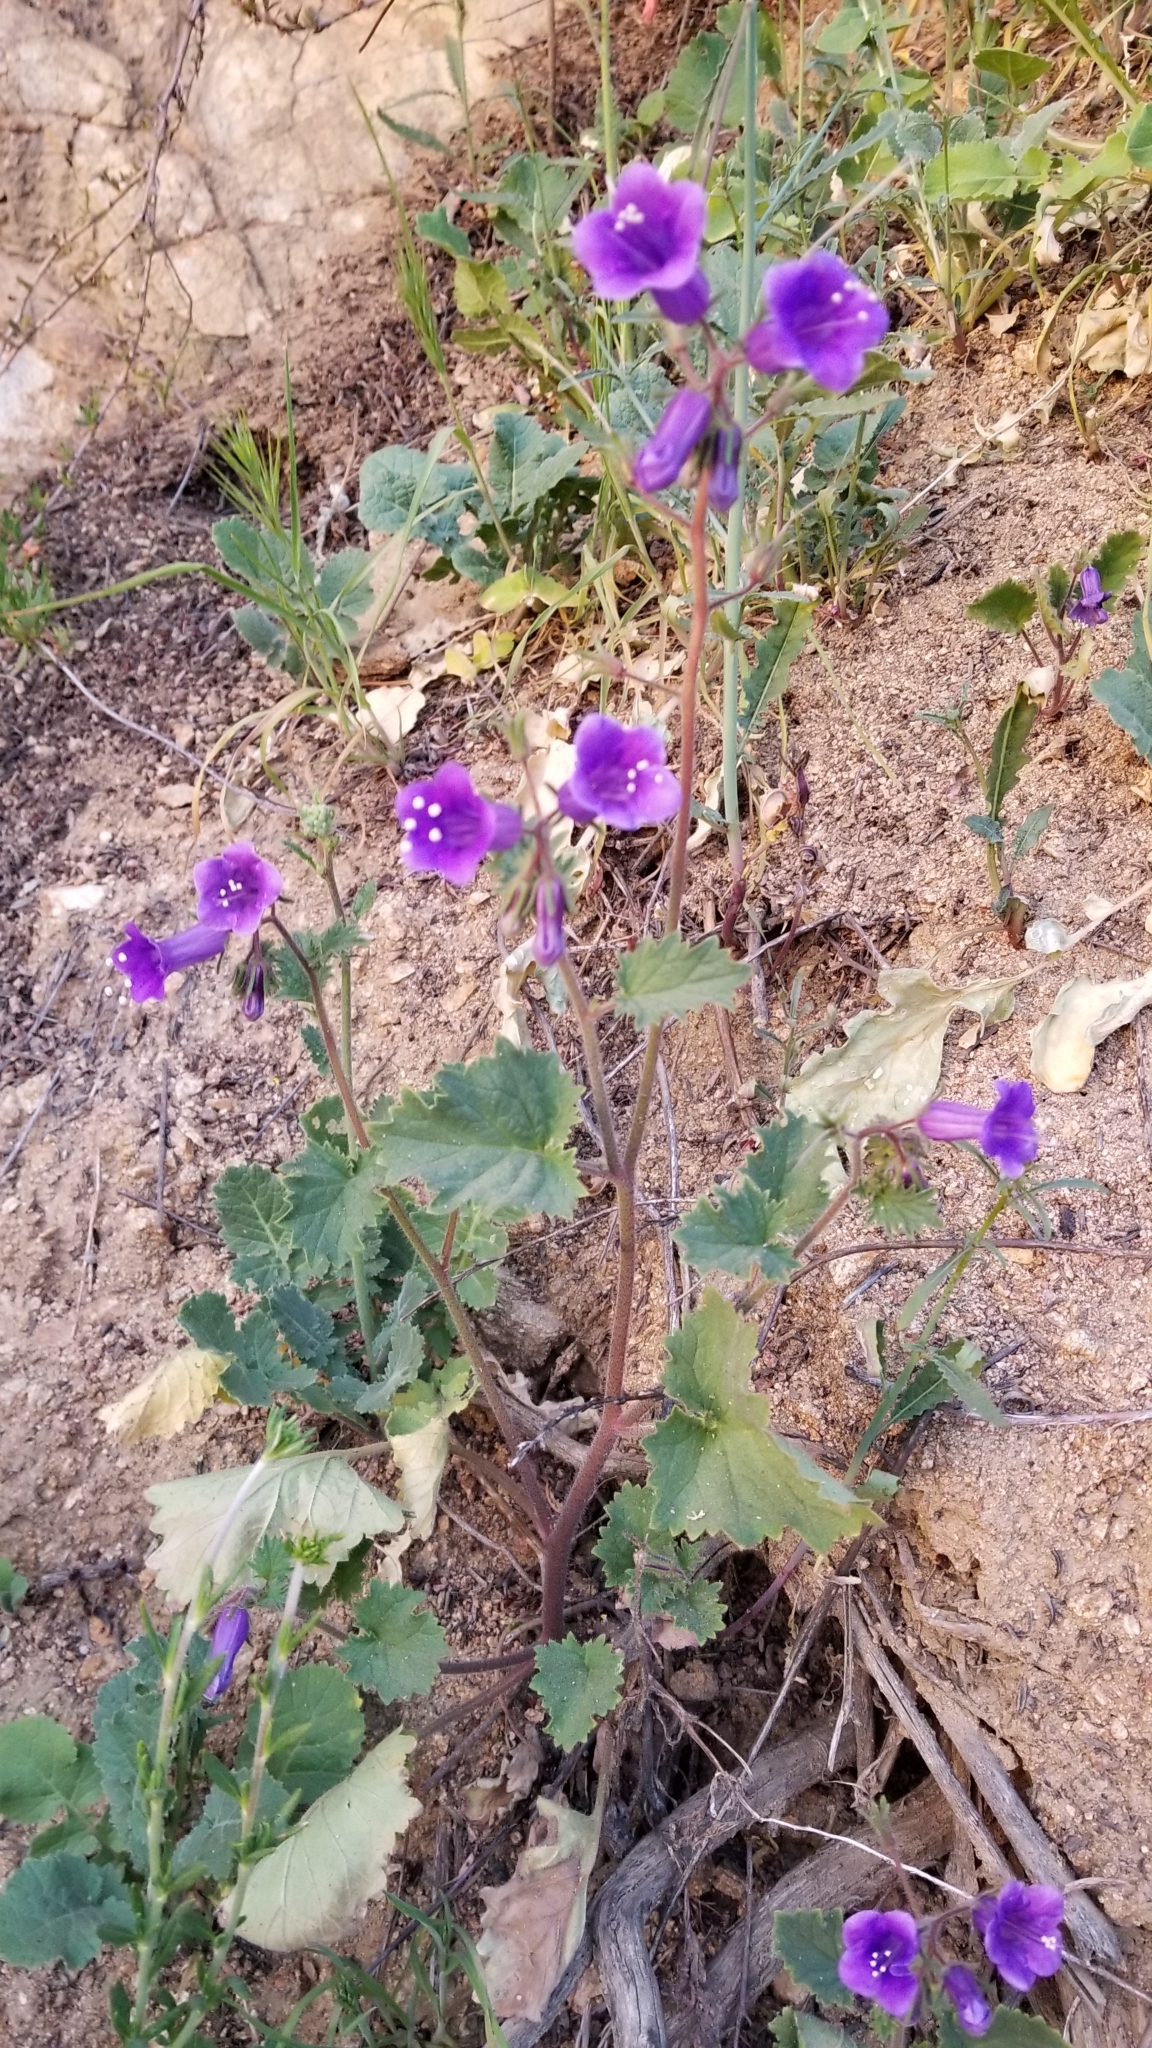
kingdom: Plantae
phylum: Tracheophyta
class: Magnoliopsida
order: Boraginales
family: Hydrophyllaceae
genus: Phacelia
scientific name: Phacelia minor
